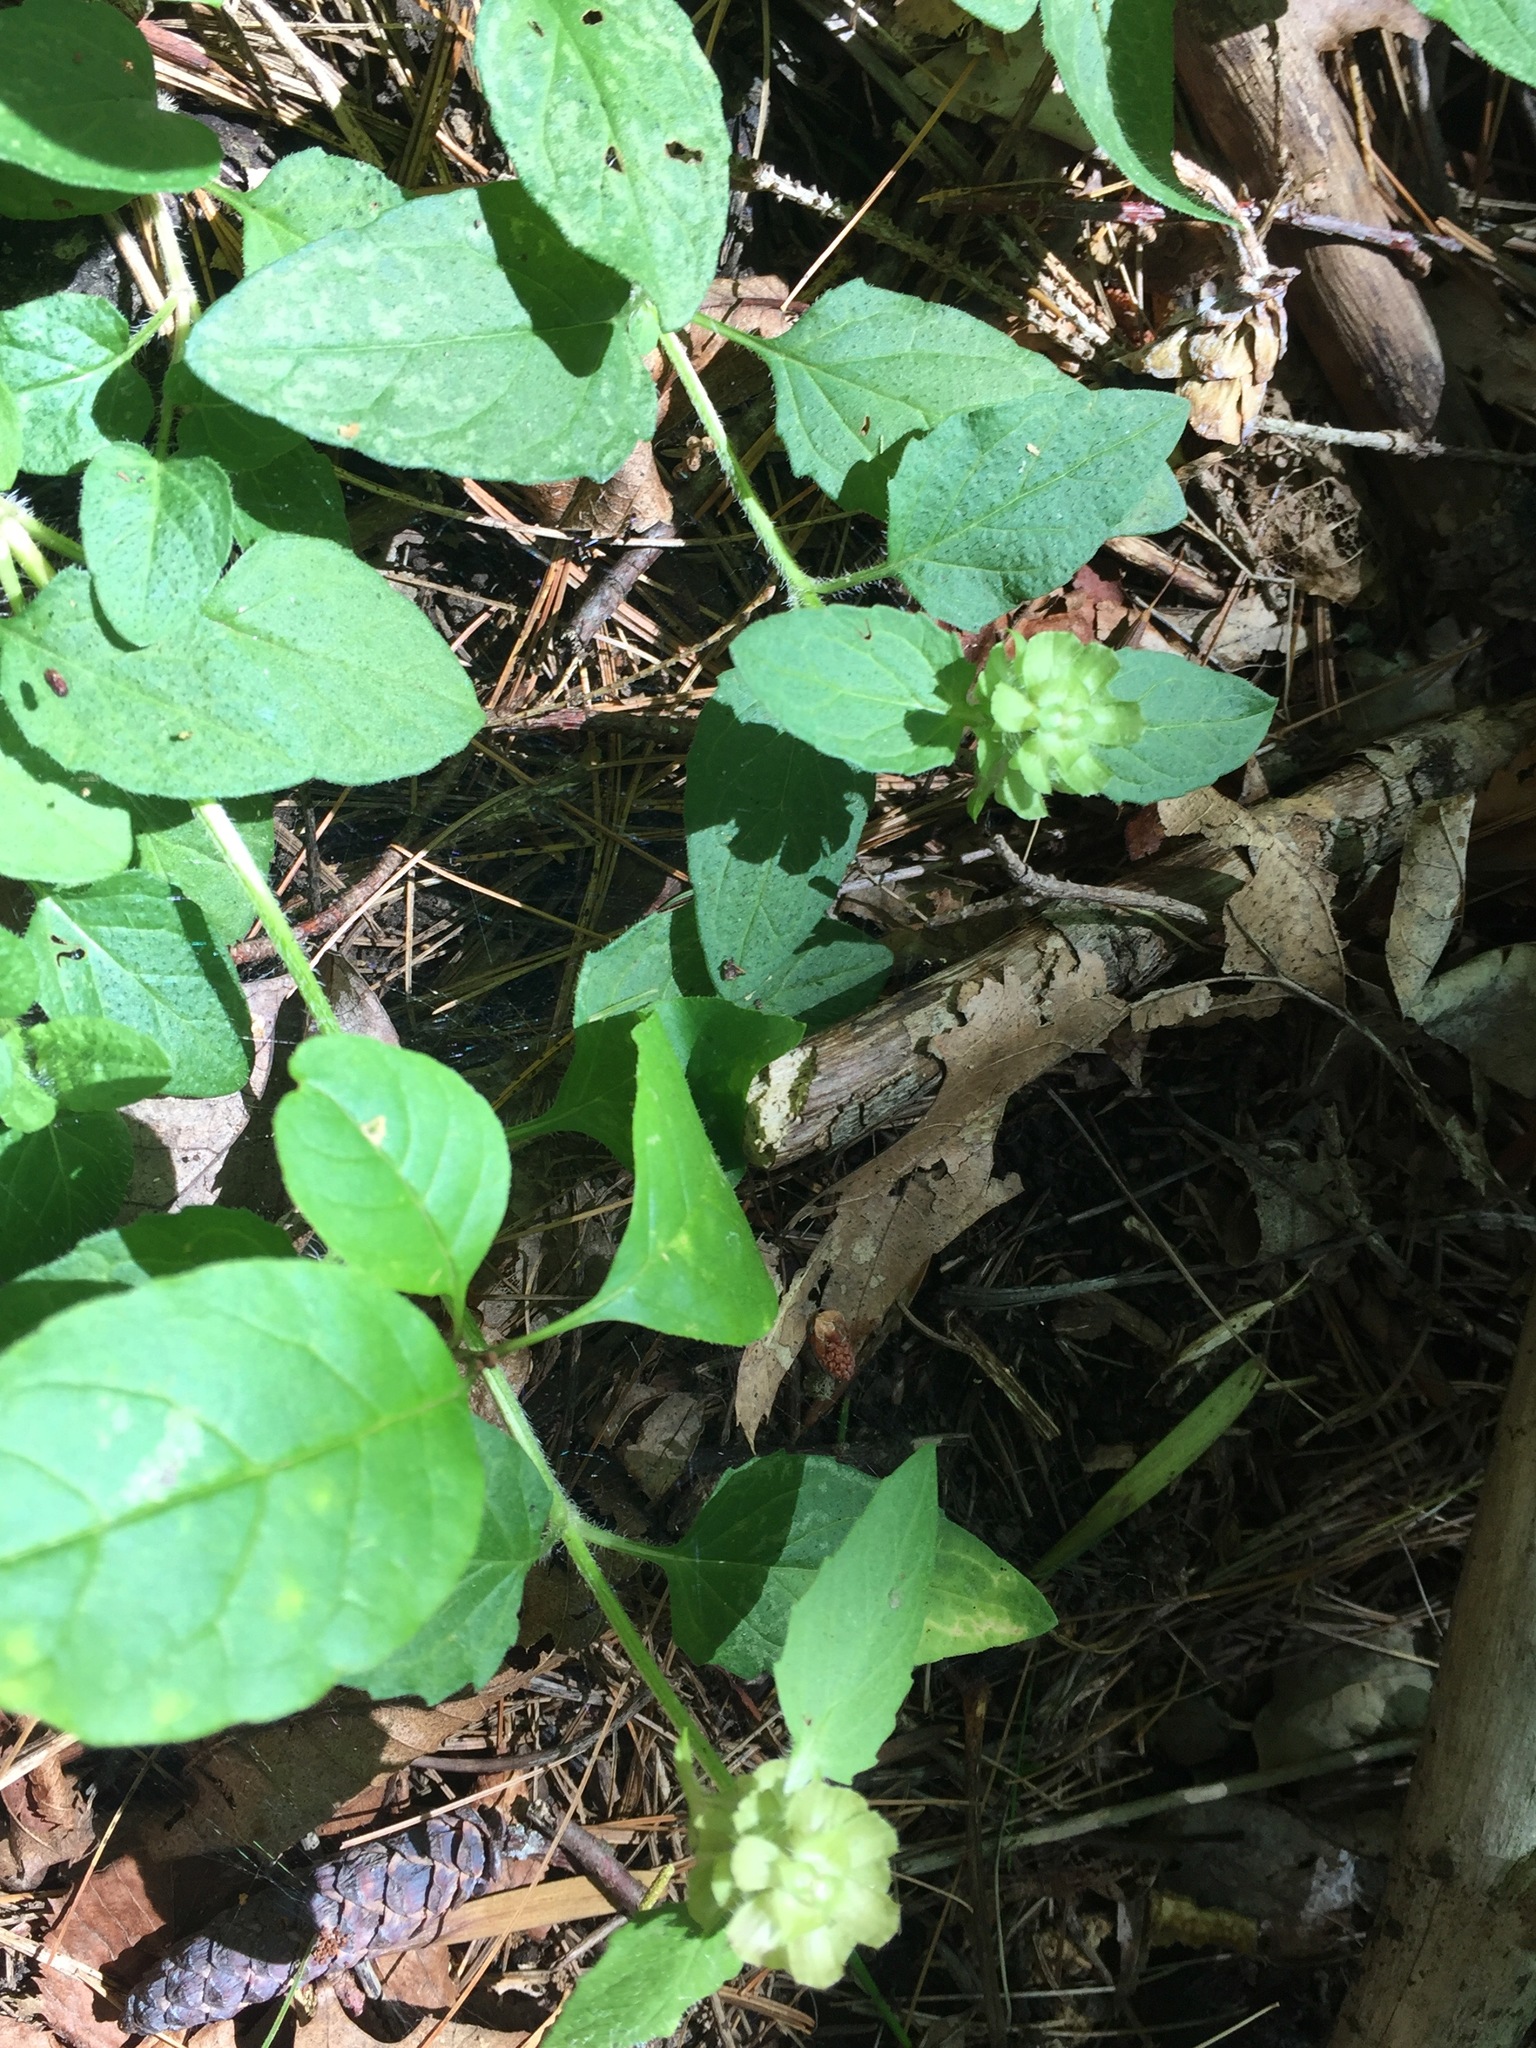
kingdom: Plantae
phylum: Tracheophyta
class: Magnoliopsida
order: Lamiales
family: Lamiaceae
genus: Prunella
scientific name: Prunella vulgaris
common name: Heal-all
